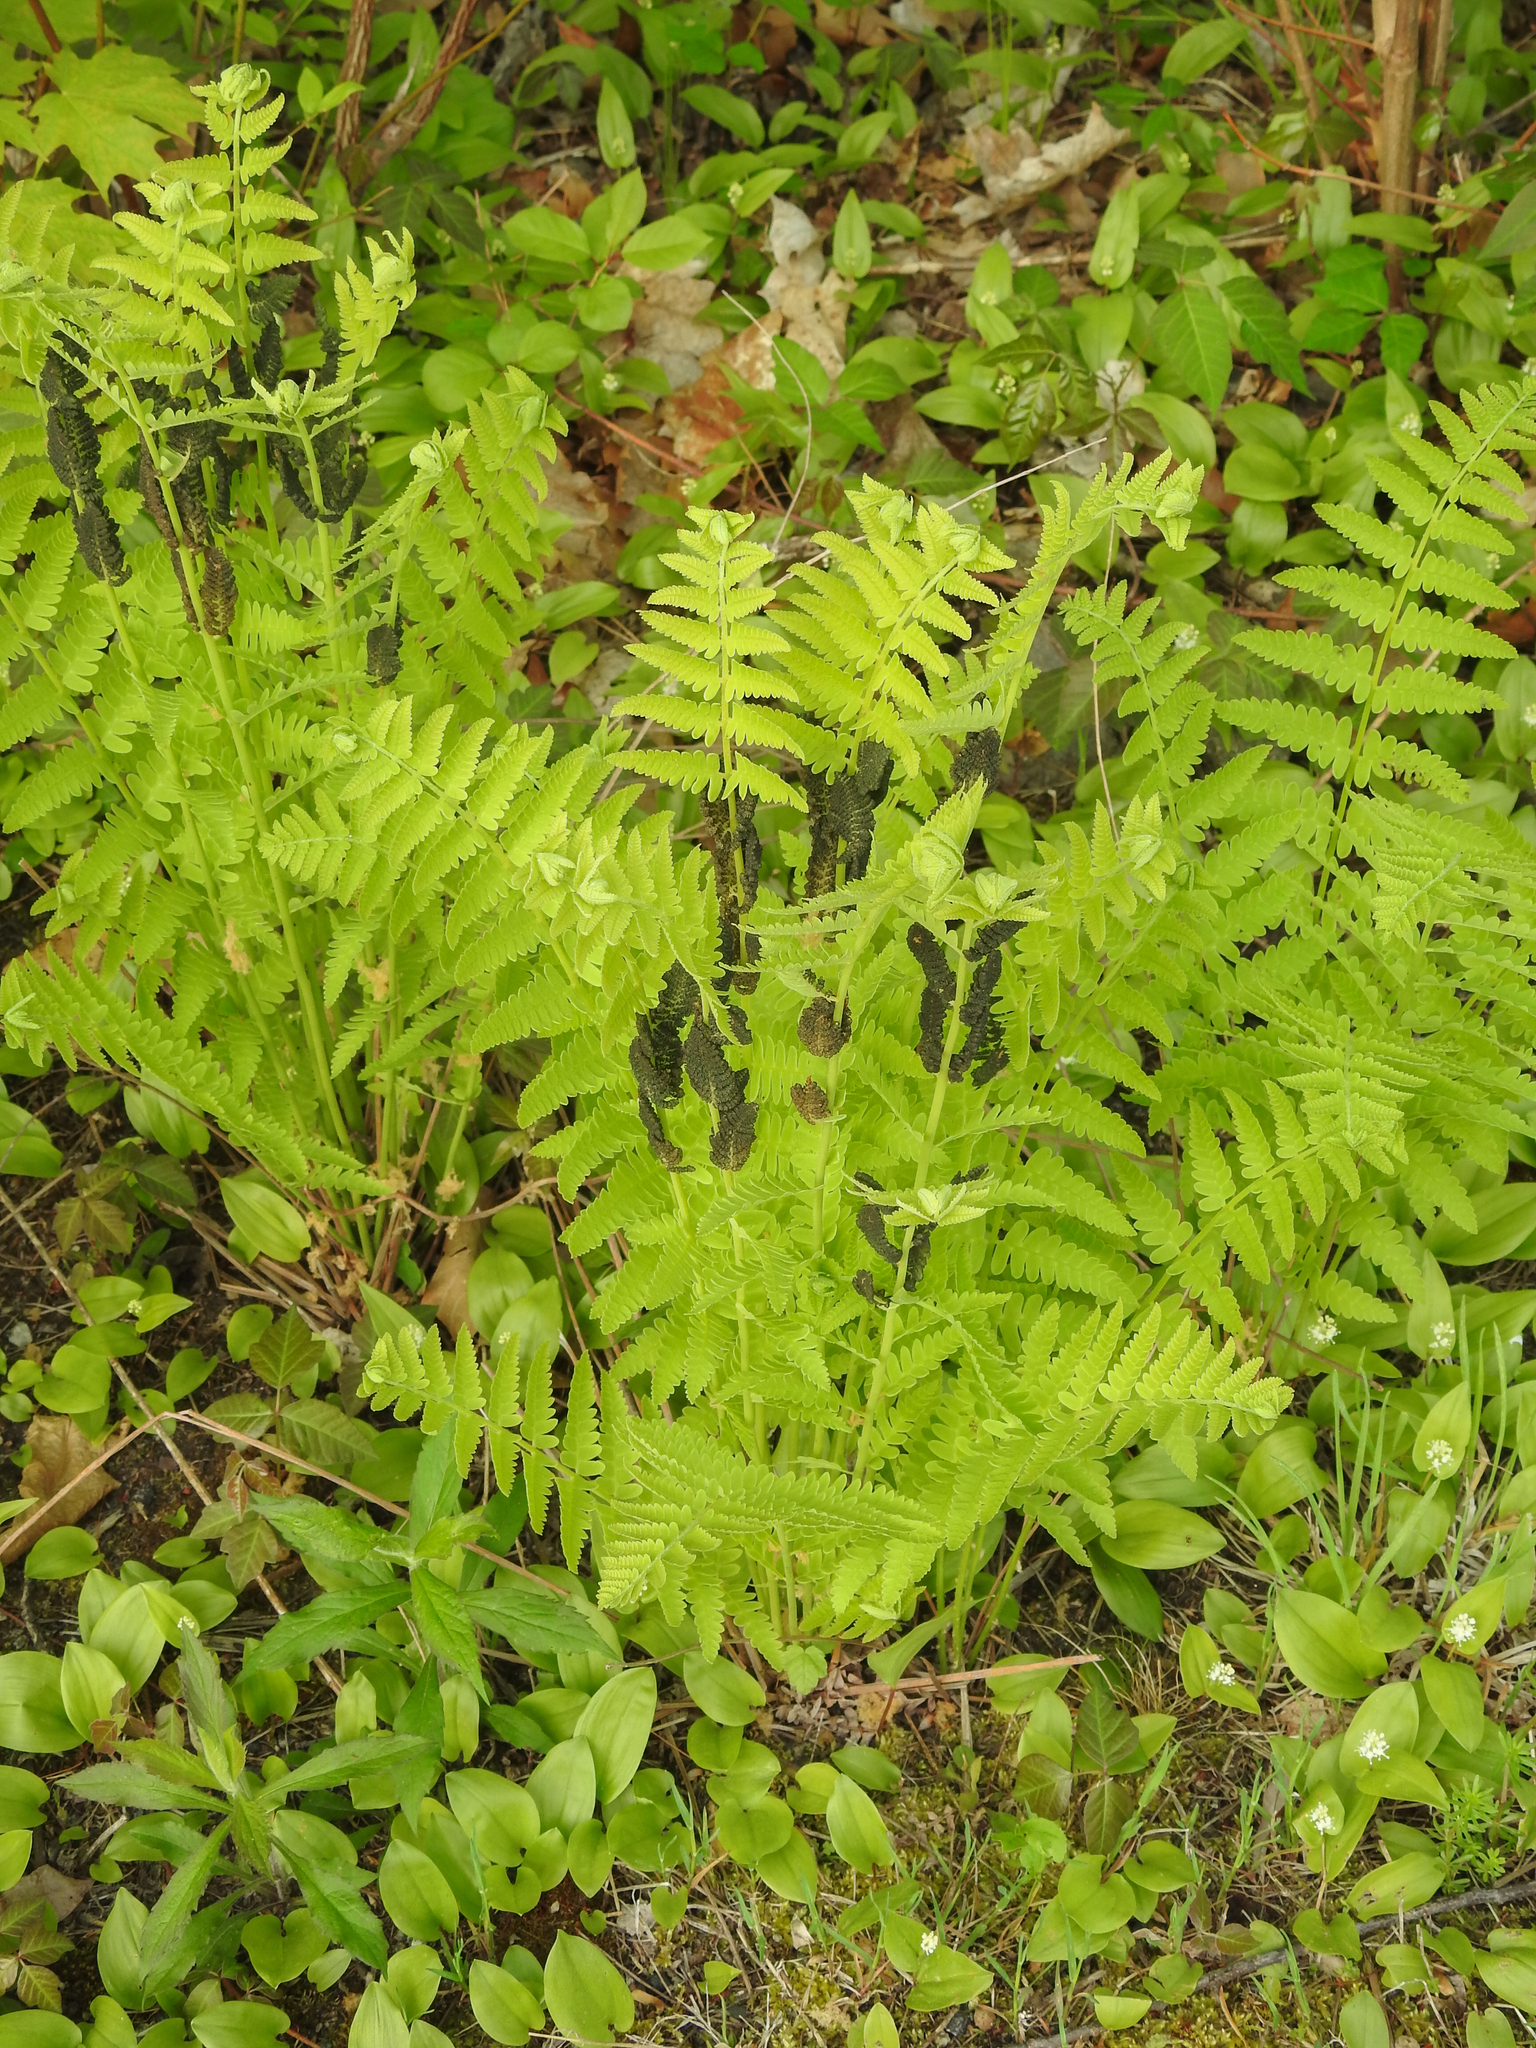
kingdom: Plantae
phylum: Tracheophyta
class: Polypodiopsida
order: Osmundales
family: Osmundaceae
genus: Claytosmunda
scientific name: Claytosmunda claytoniana
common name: Clayton's fern
